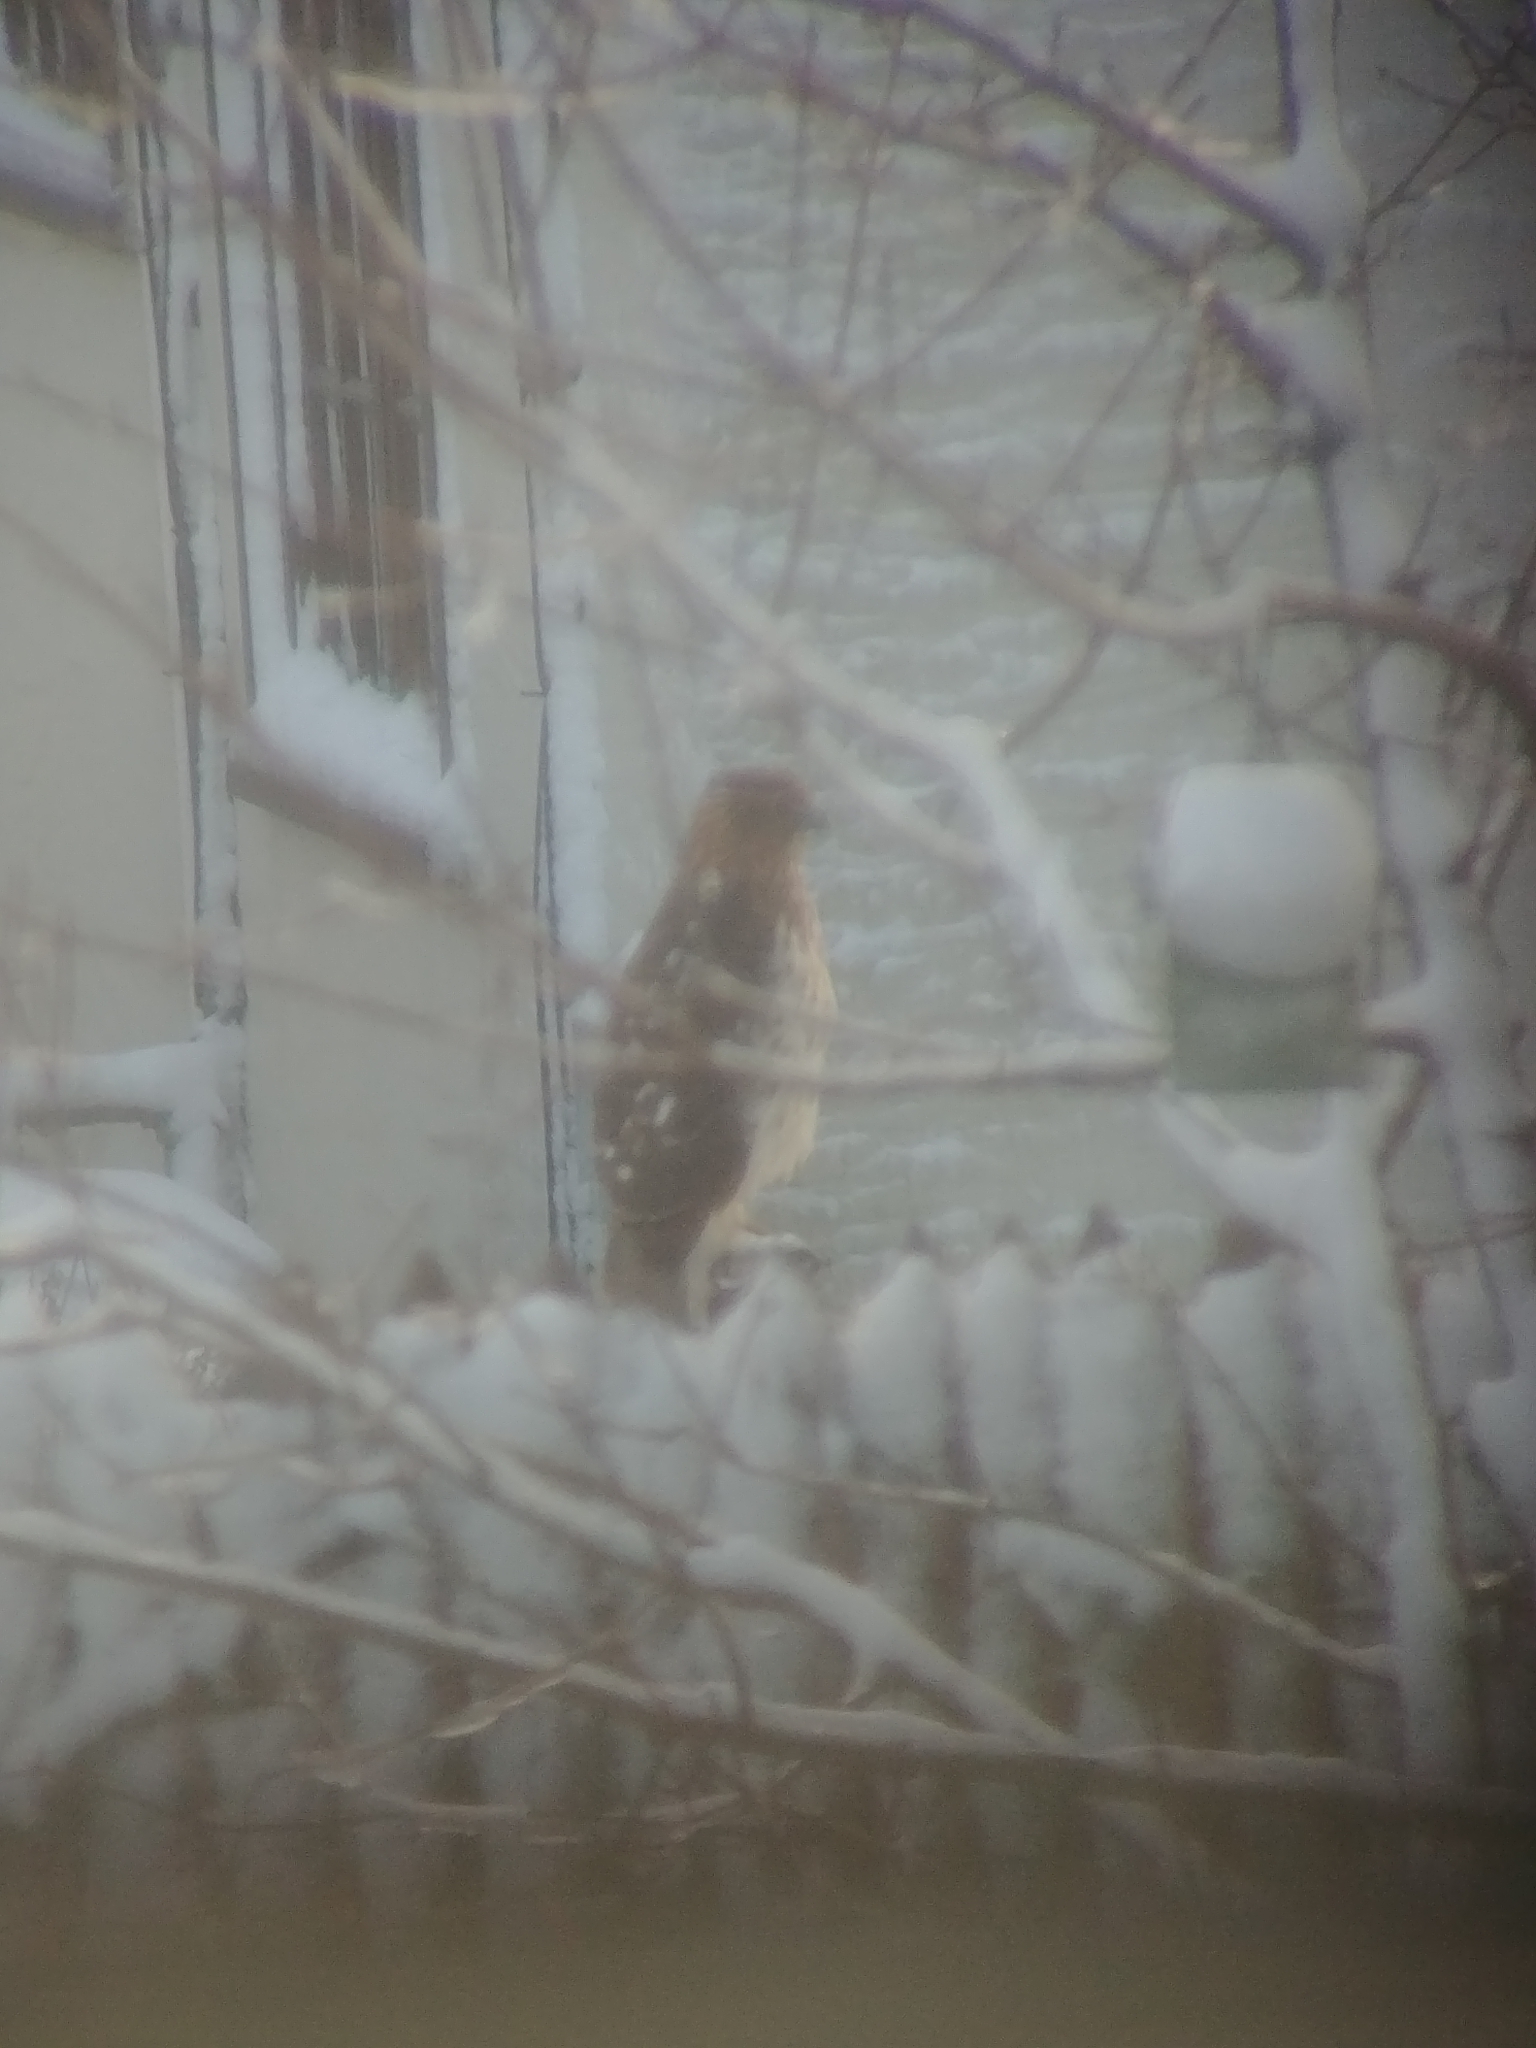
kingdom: Animalia
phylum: Chordata
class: Aves
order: Accipitriformes
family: Accipitridae
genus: Accipiter
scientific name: Accipiter cooperii
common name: Cooper's hawk
